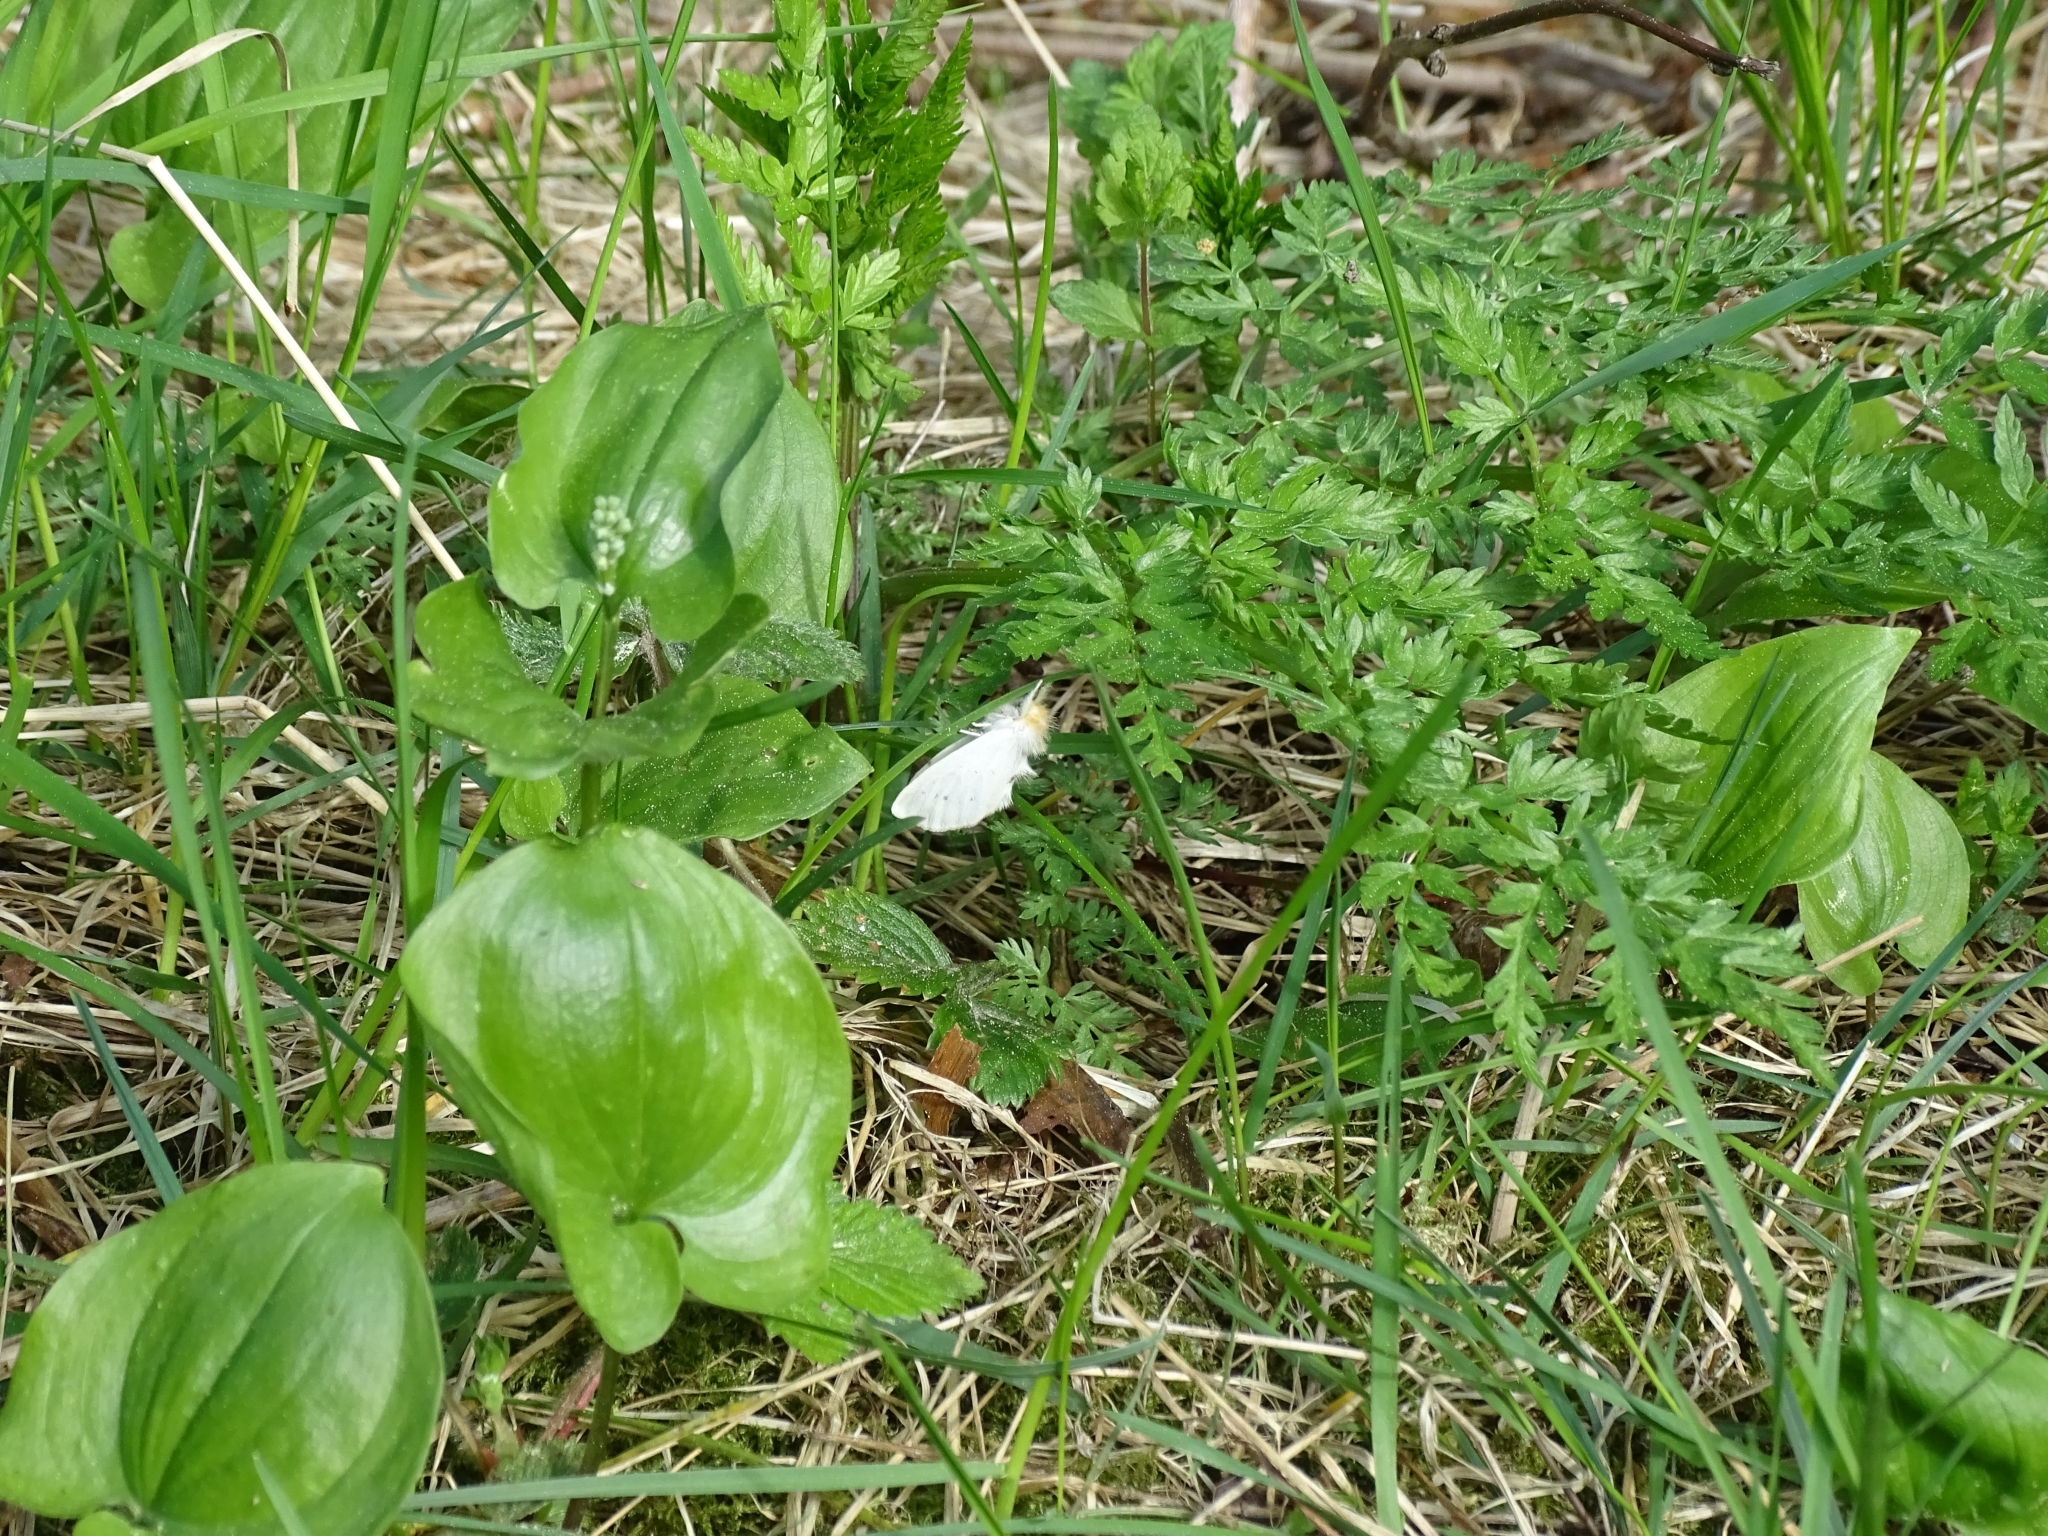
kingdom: Animalia
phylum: Arthropoda
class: Insecta
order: Lepidoptera
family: Notodontidae
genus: Leucodonta
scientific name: Leucodonta bicoloria
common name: White prominent
